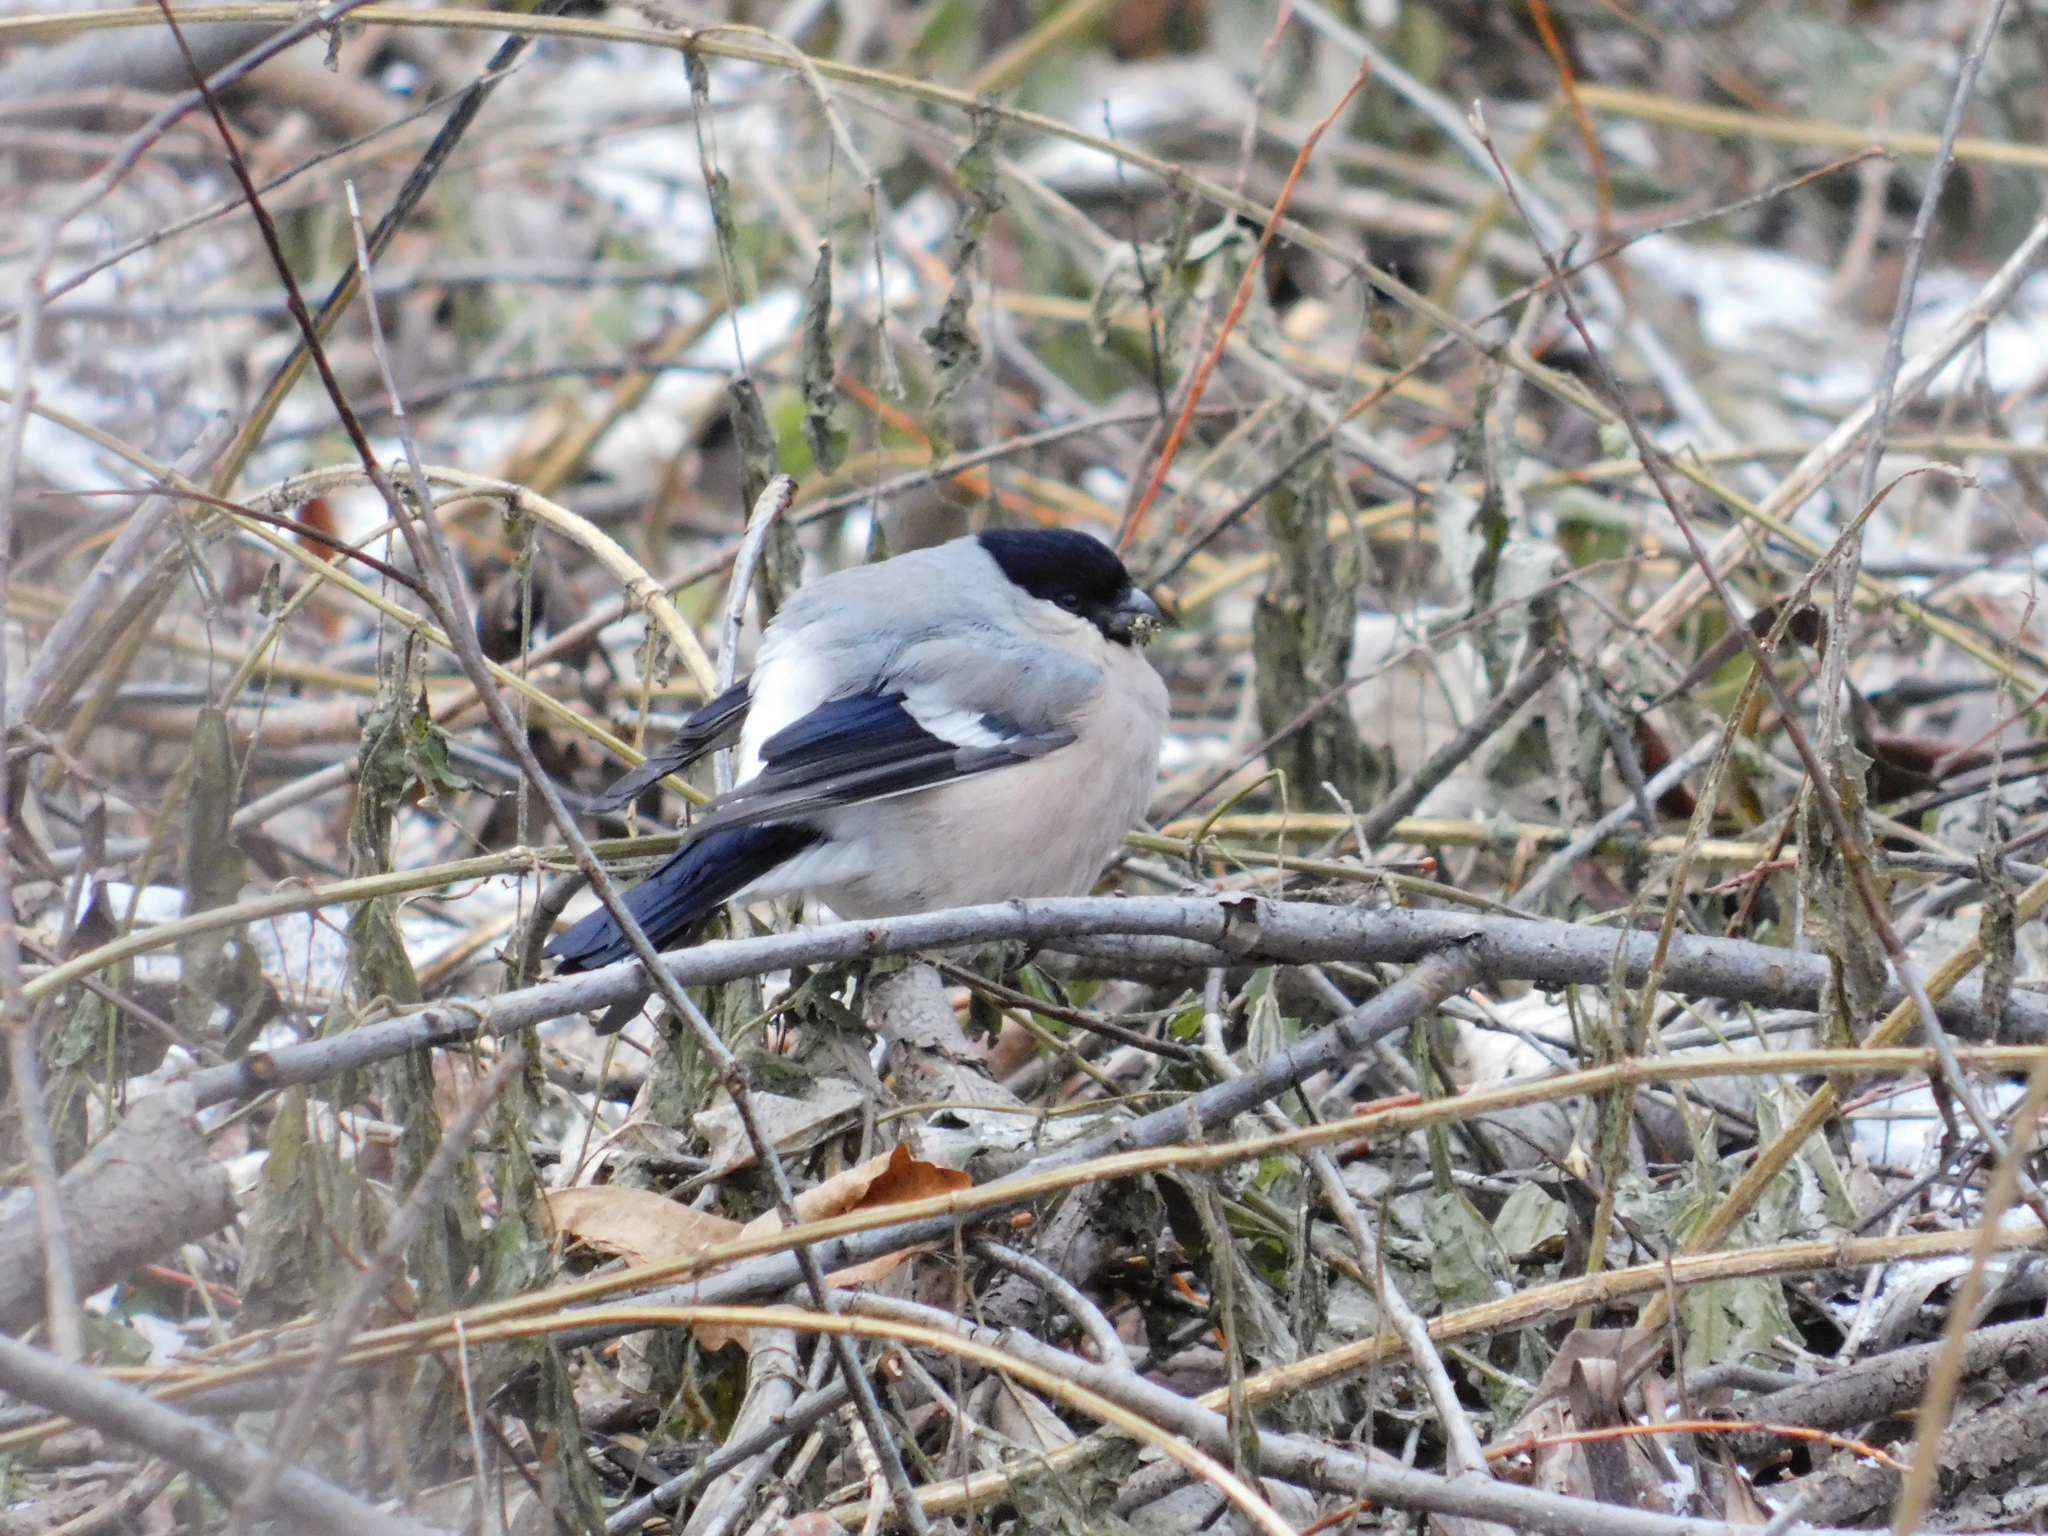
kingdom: Animalia
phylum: Chordata
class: Aves
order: Passeriformes
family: Fringillidae
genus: Pyrrhula
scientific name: Pyrrhula pyrrhula
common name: Eurasian bullfinch
